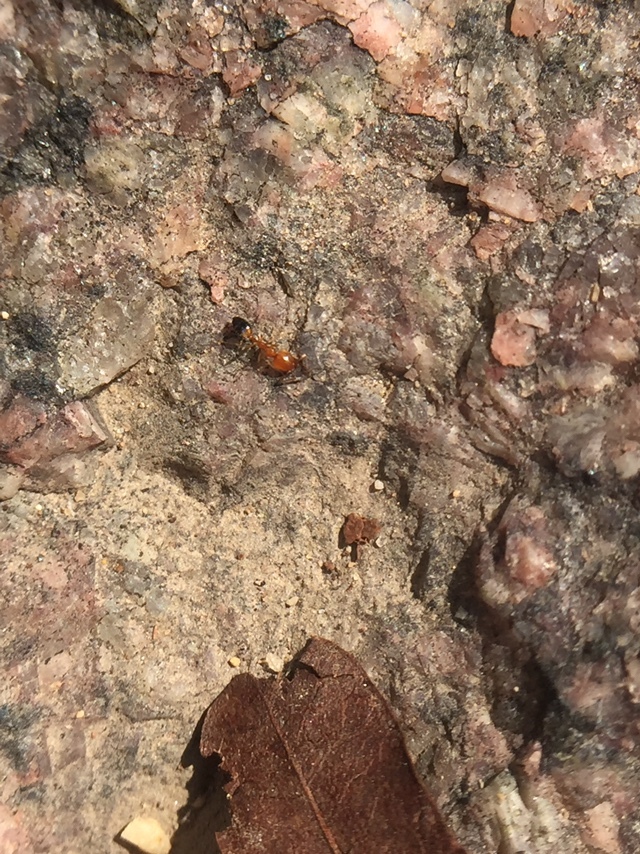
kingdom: Animalia
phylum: Arthropoda
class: Insecta
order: Hymenoptera
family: Formicidae
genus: Monomorium
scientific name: Monomorium destructor
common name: Destructive trailing ant
